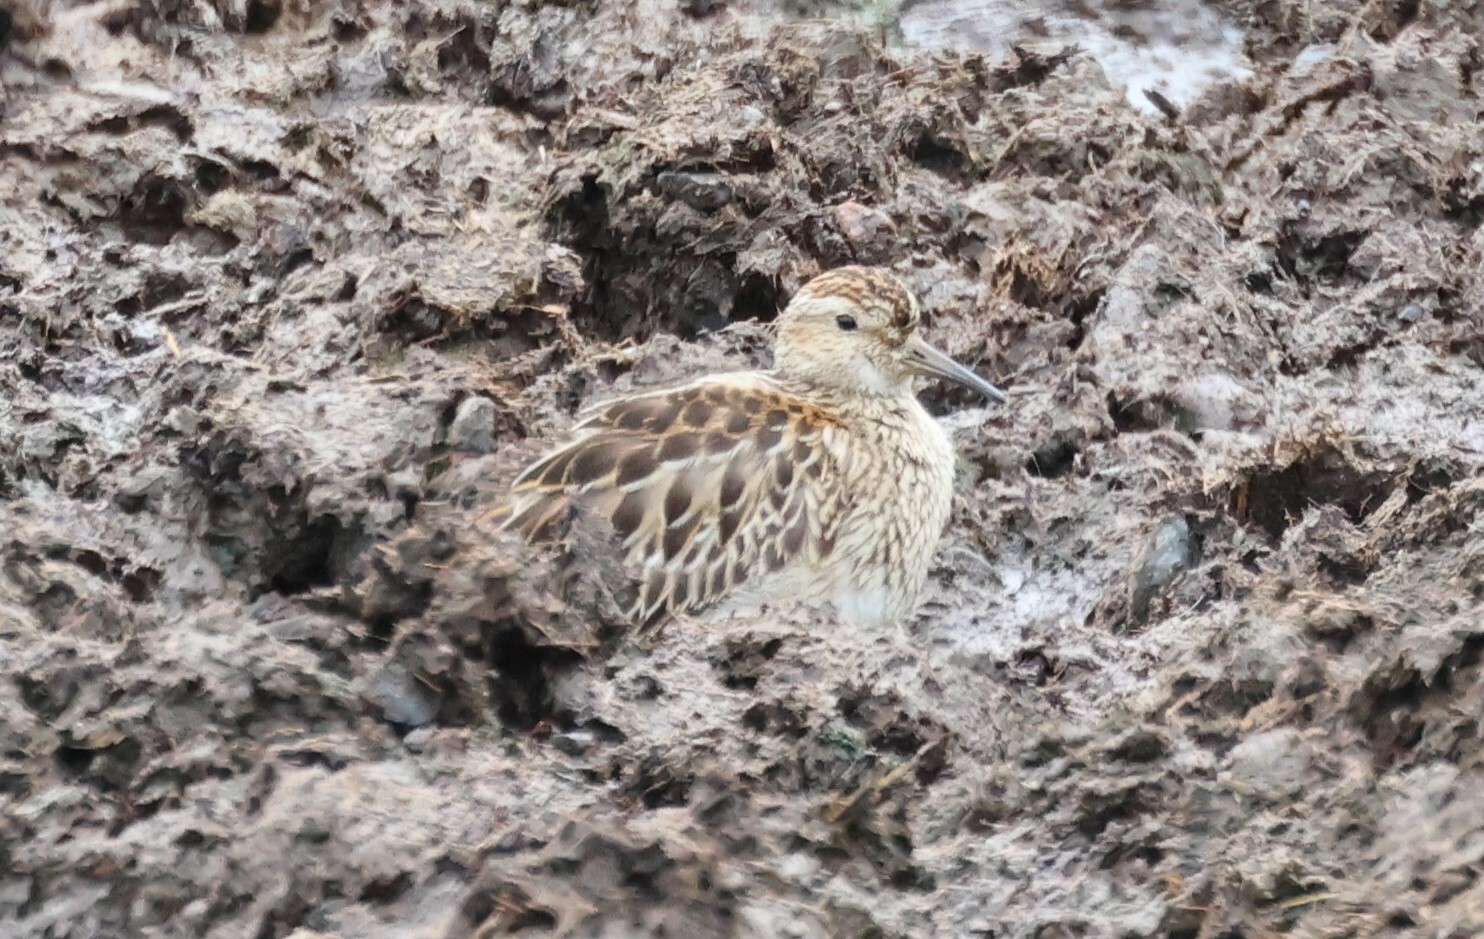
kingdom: Animalia
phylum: Chordata
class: Aves
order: Charadriiformes
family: Scolopacidae
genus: Calidris
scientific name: Calidris melanotos
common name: Pectoral sandpiper
